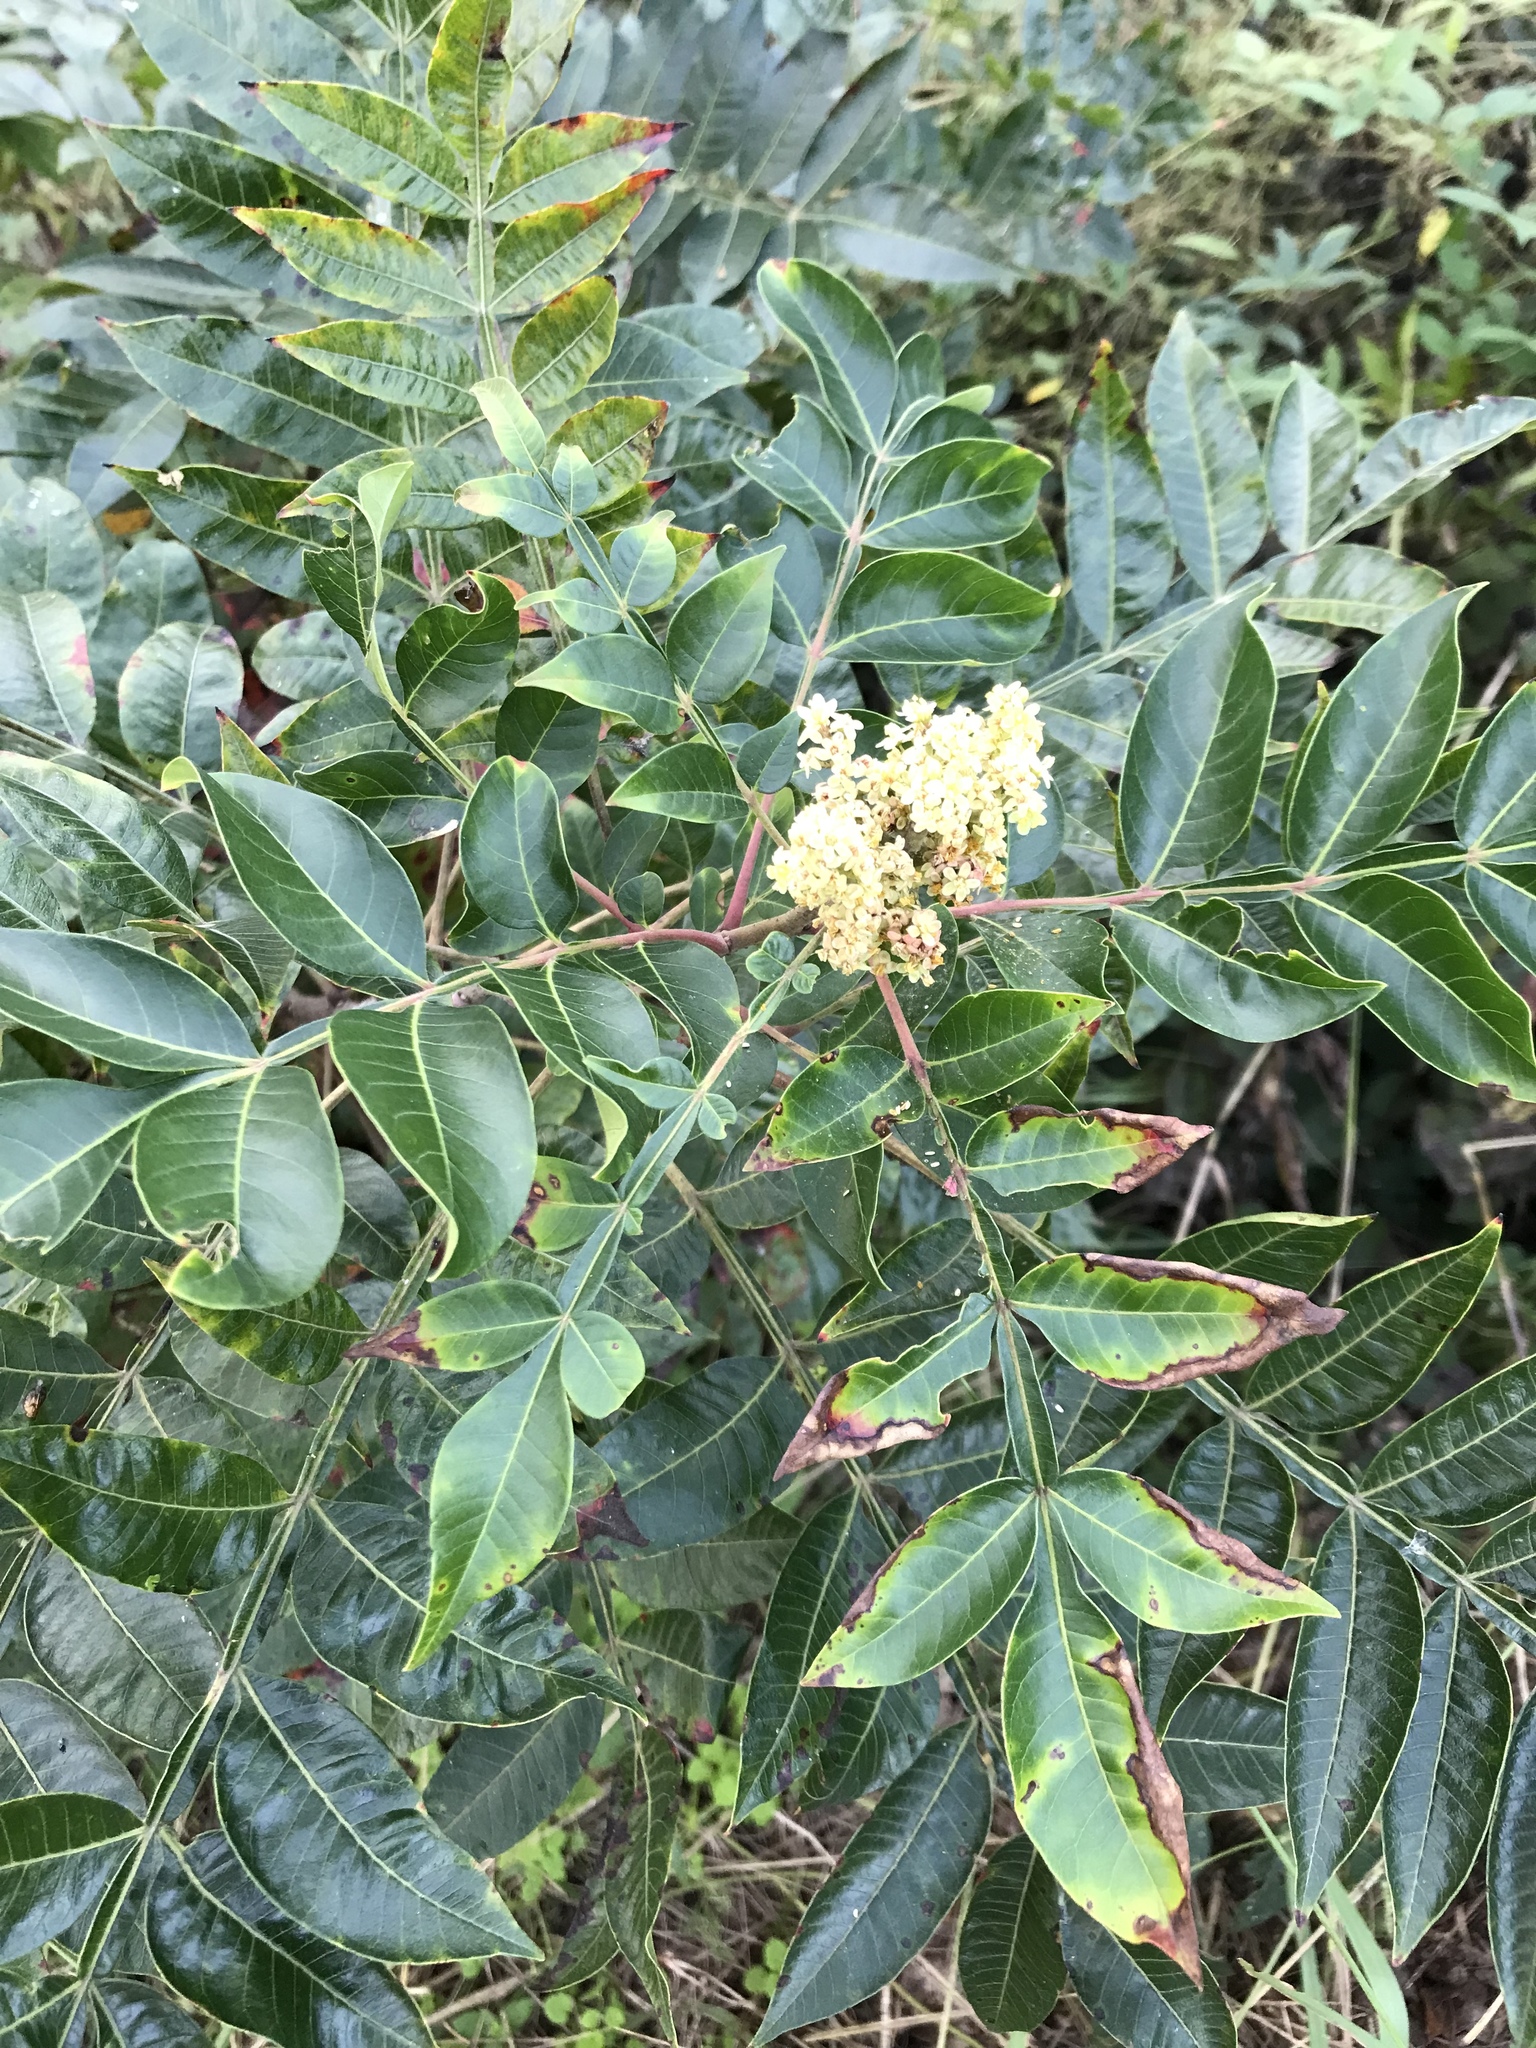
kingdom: Plantae
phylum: Tracheophyta
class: Magnoliopsida
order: Sapindales
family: Anacardiaceae
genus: Rhus
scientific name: Rhus copallina
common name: Shining sumac
